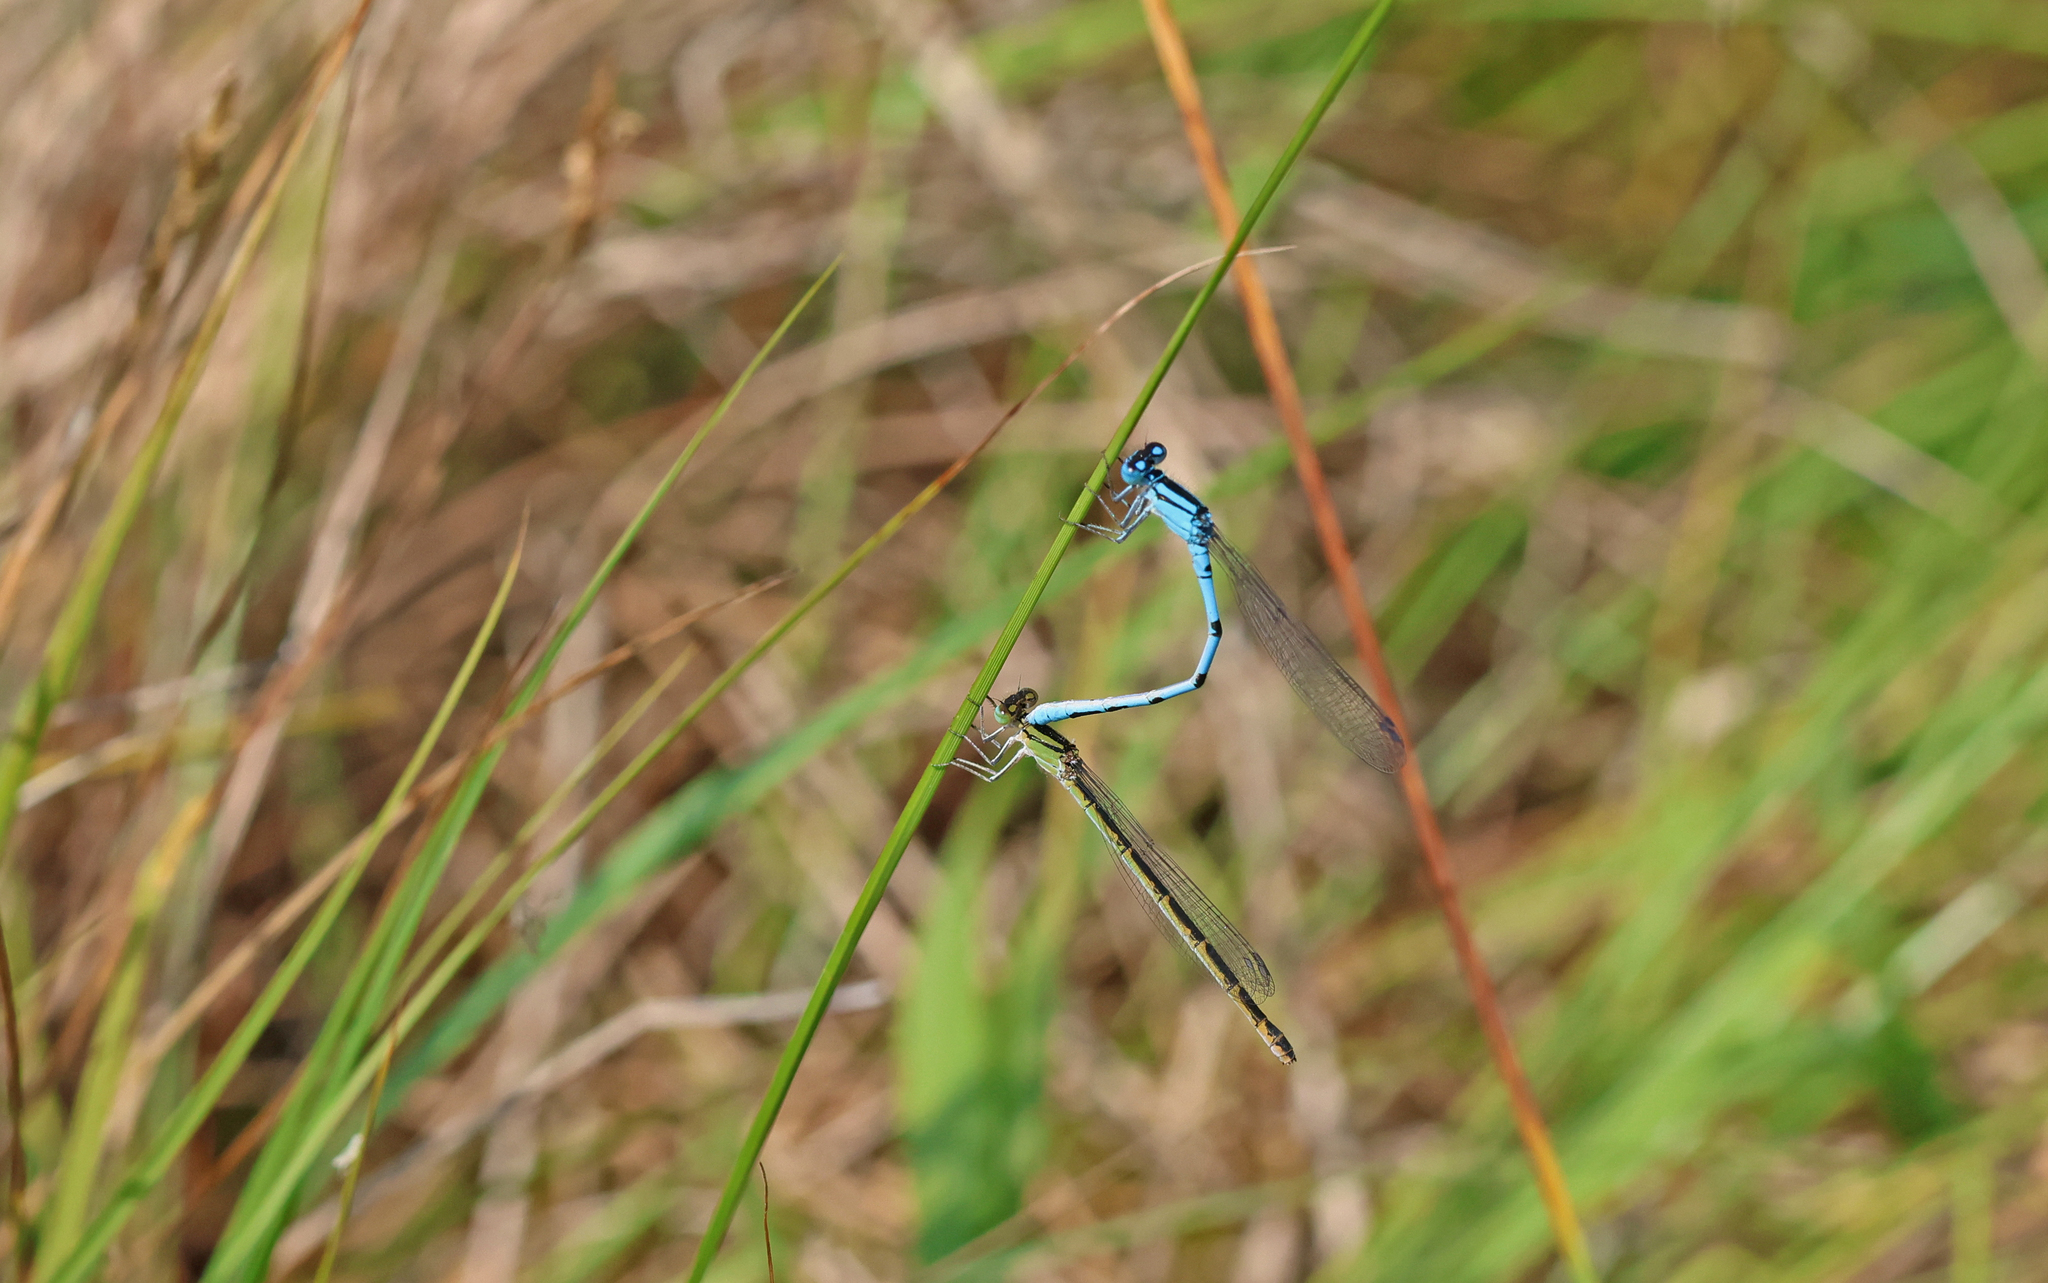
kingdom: Animalia
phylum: Arthropoda
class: Insecta
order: Odonata
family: Coenagrionidae
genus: Enallagma
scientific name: Enallagma cyathigerum
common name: Common blue damselfly
